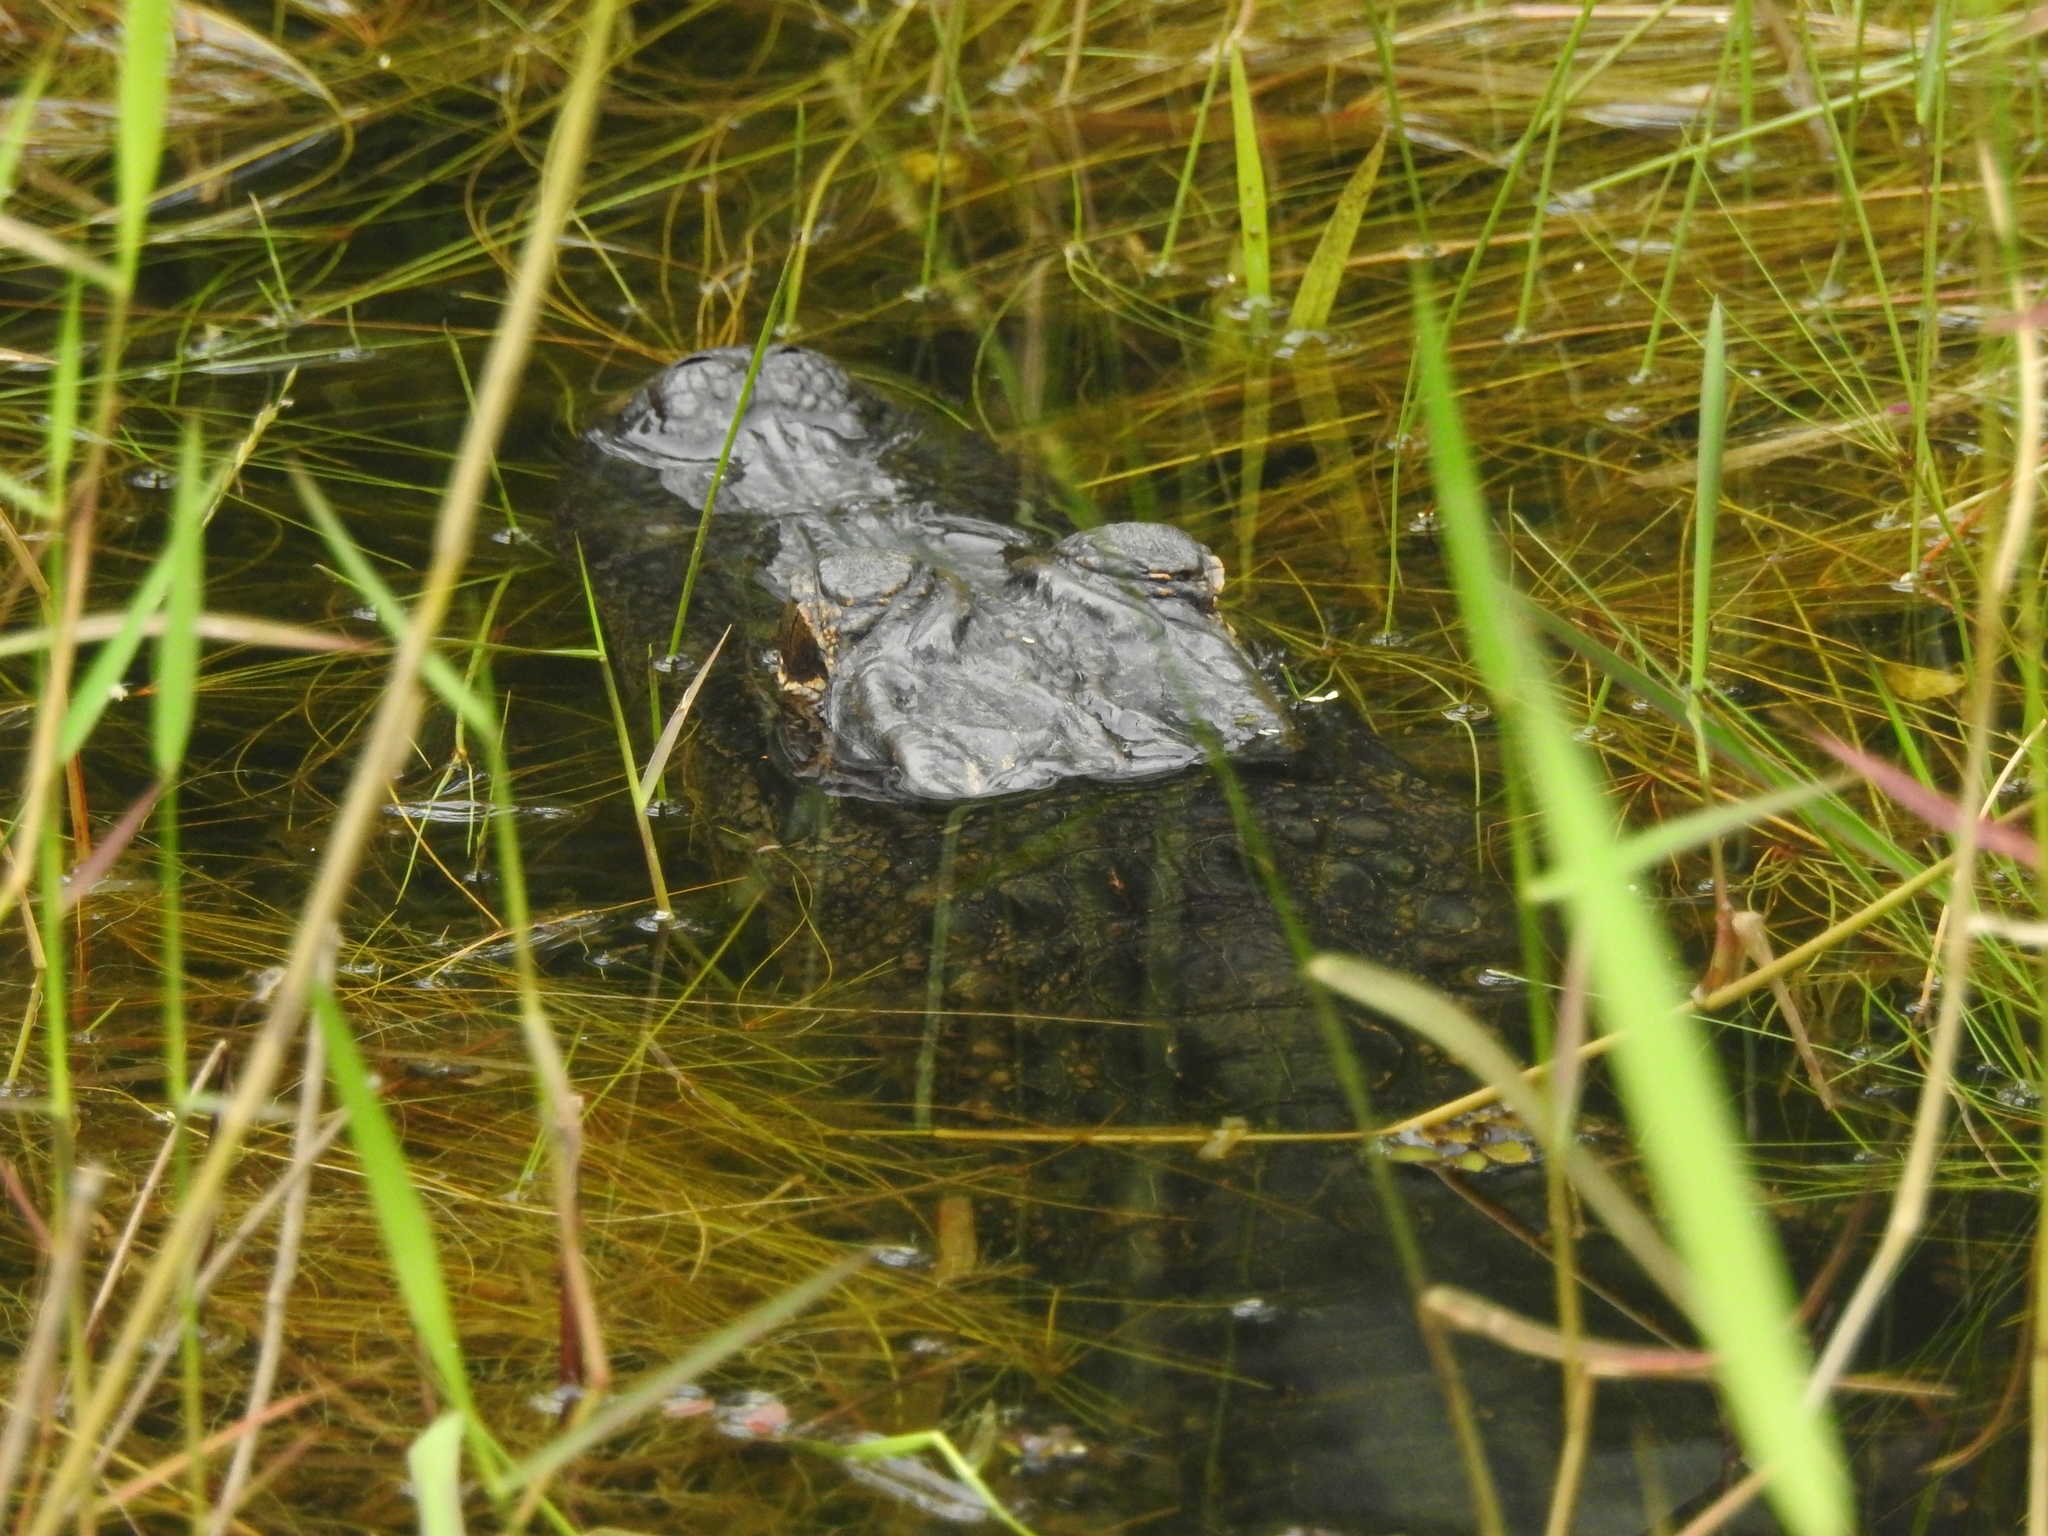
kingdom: Animalia
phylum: Chordata
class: Crocodylia
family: Alligatoridae
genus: Alligator
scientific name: Alligator mississippiensis
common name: American alligator
